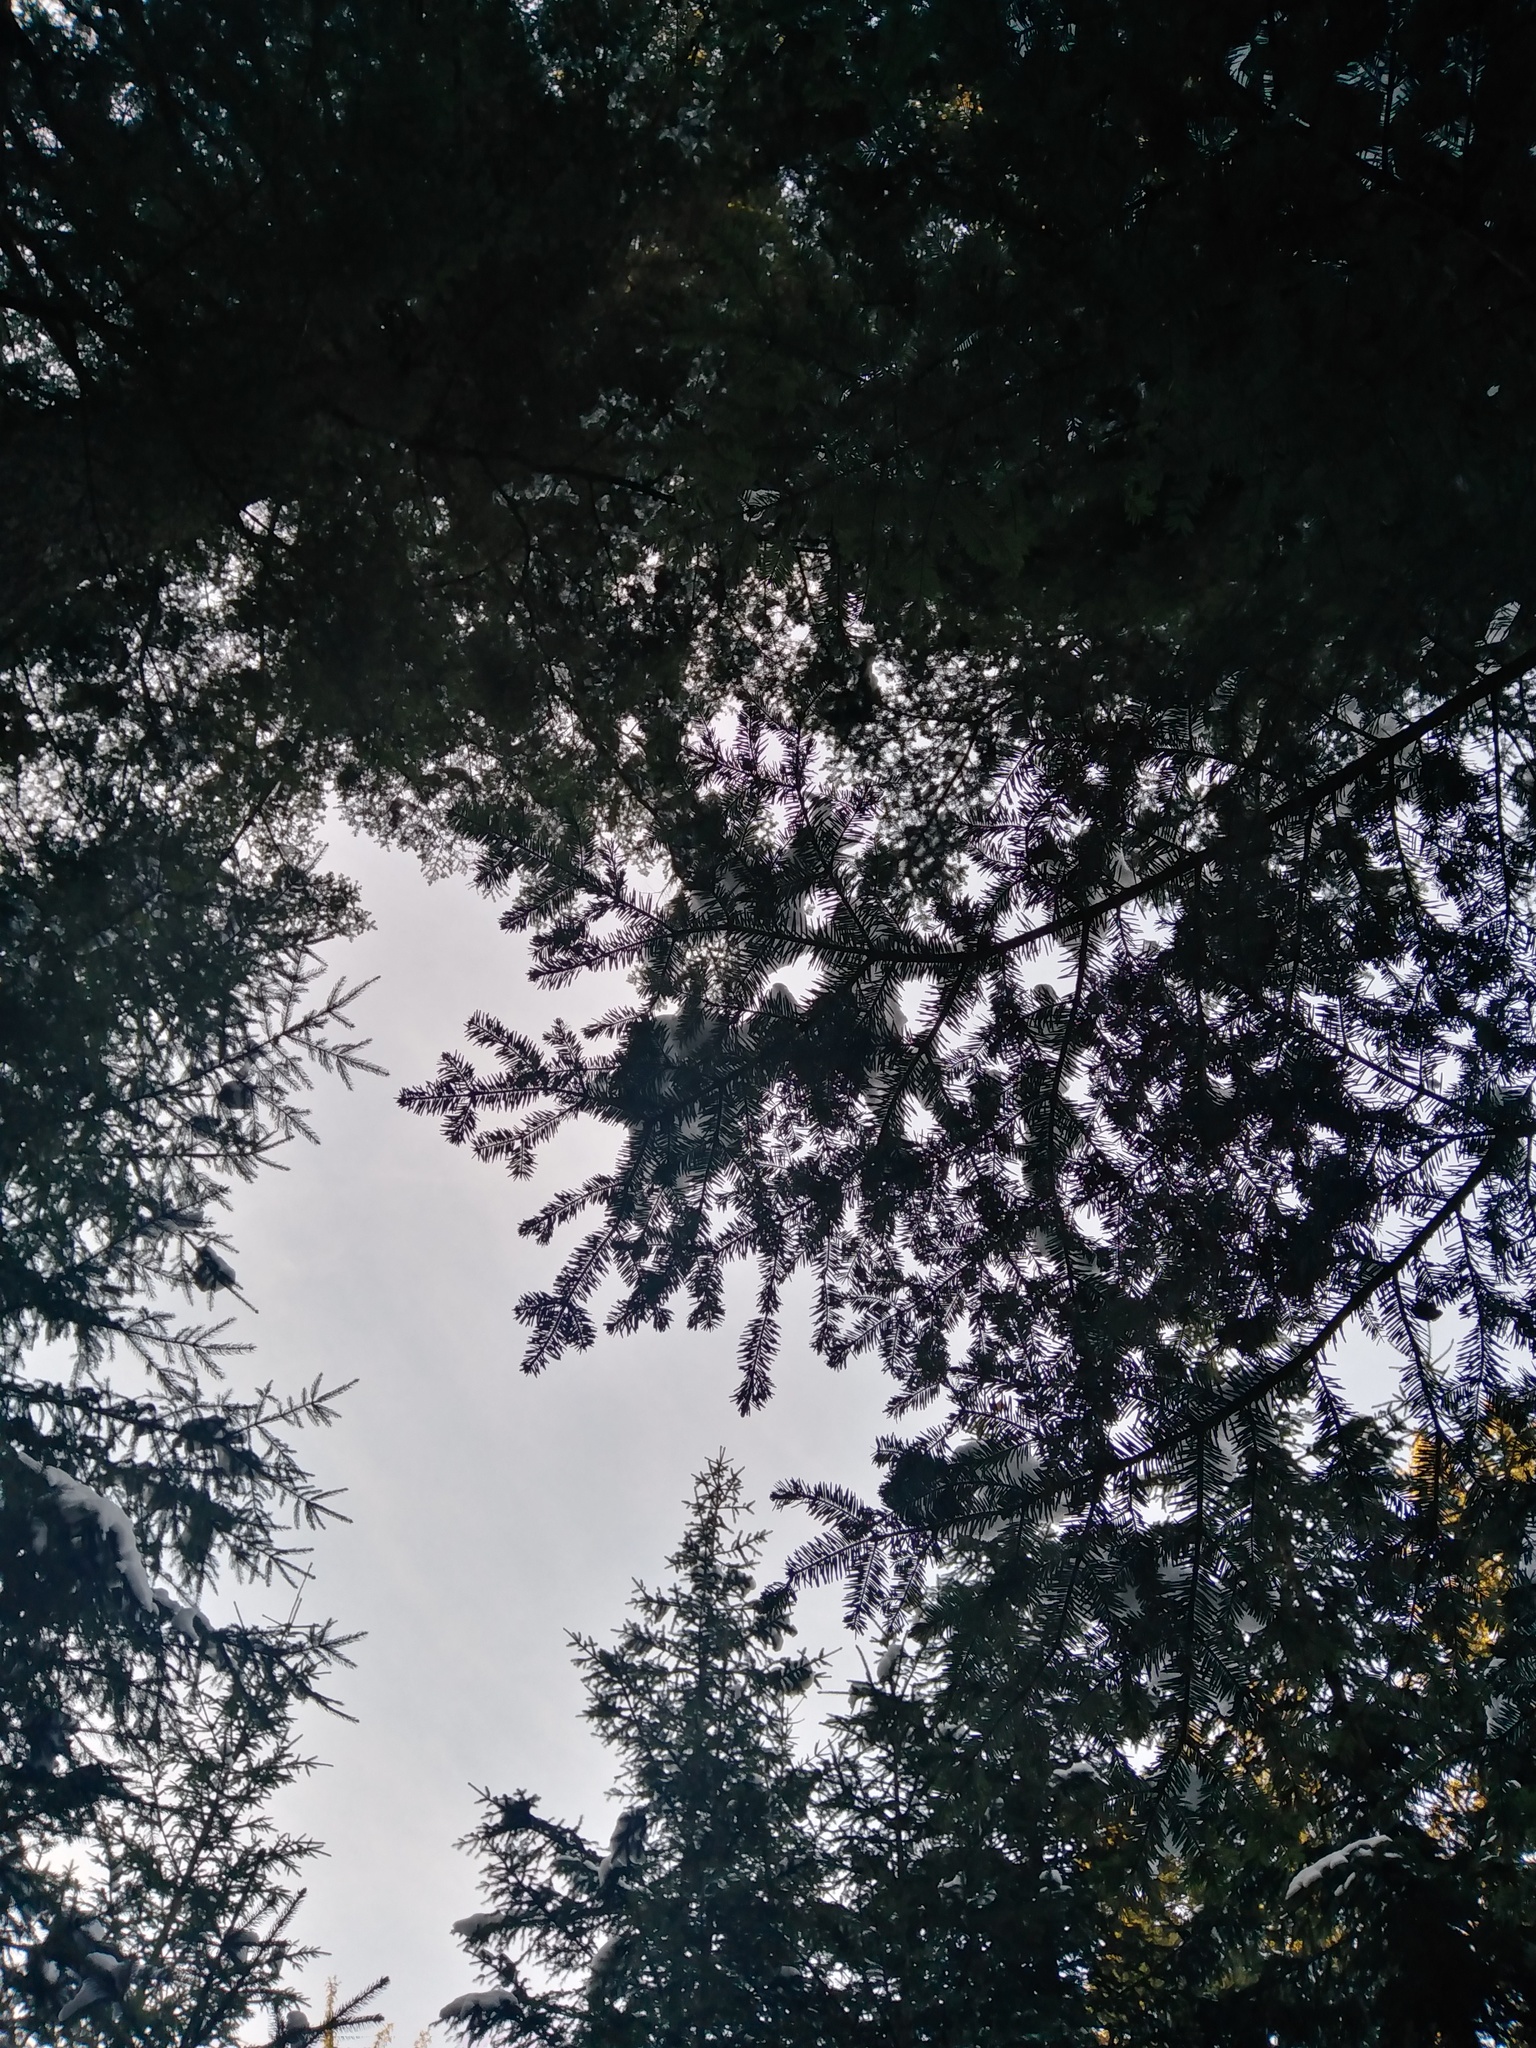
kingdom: Plantae
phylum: Tracheophyta
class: Pinopsida
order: Pinales
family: Pinaceae
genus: Abies
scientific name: Abies alba
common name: Silver fir
